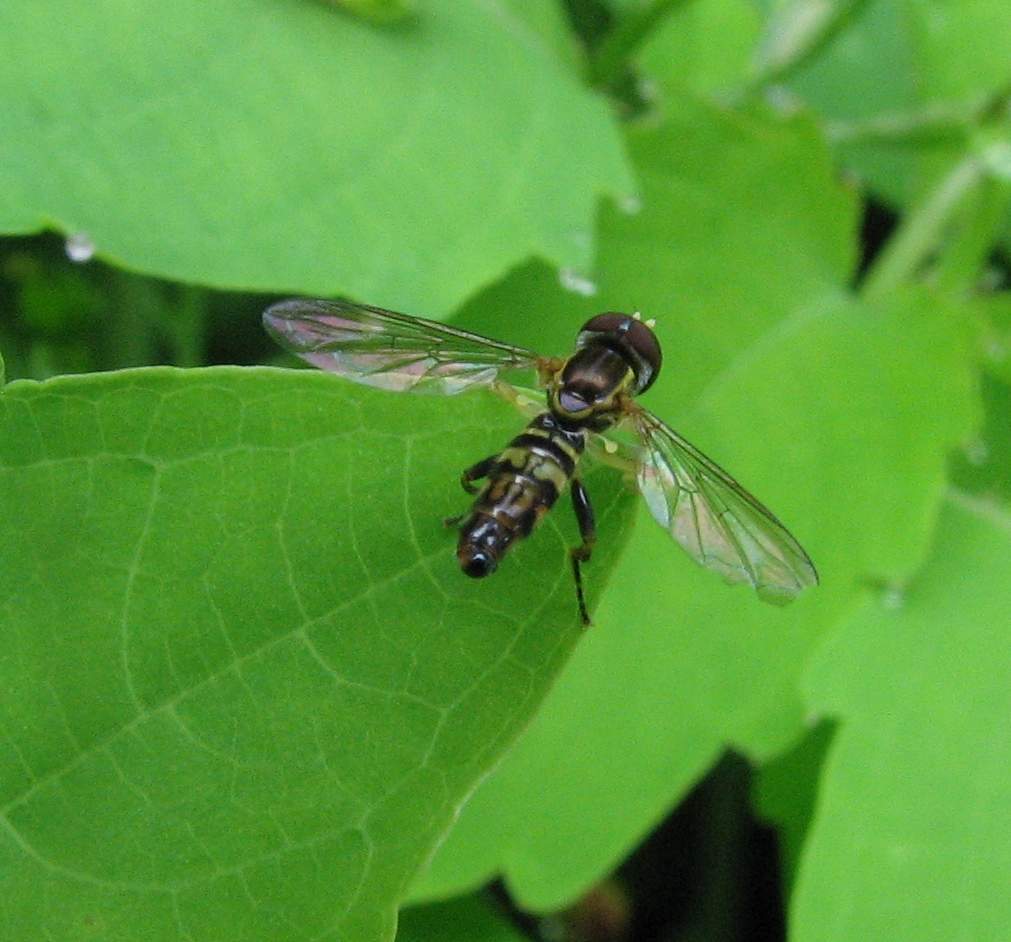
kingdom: Animalia
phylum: Arthropoda
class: Insecta
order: Diptera
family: Syrphidae
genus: Toxomerus
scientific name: Toxomerus geminatus
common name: Eastern calligrapher
